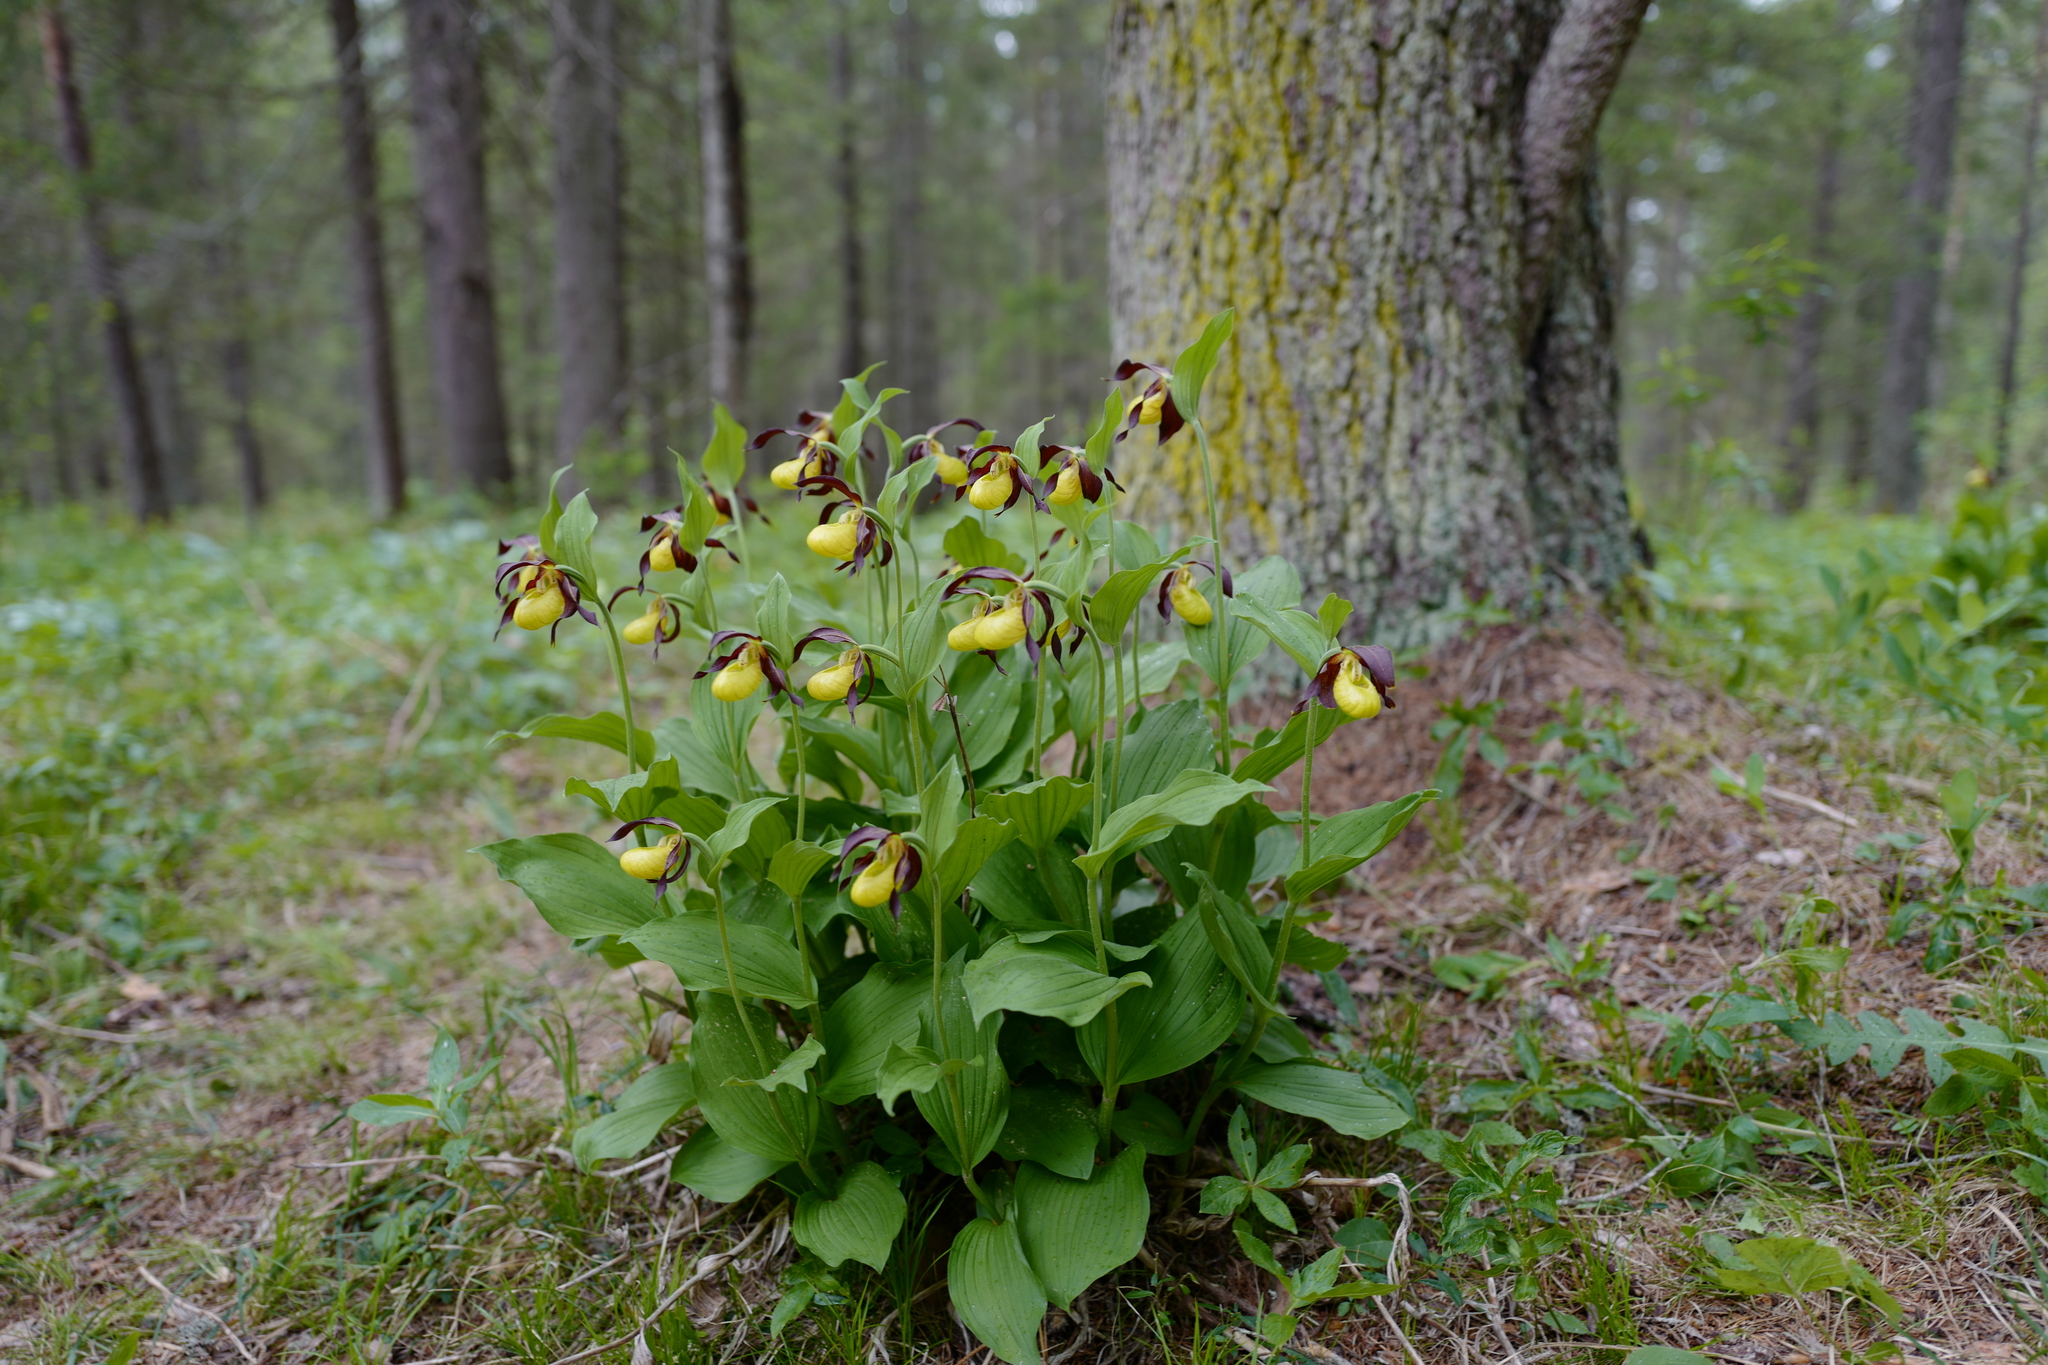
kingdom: Plantae
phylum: Tracheophyta
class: Liliopsida
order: Asparagales
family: Orchidaceae
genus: Cypripedium
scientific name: Cypripedium calceolus
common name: Lady's-slipper
